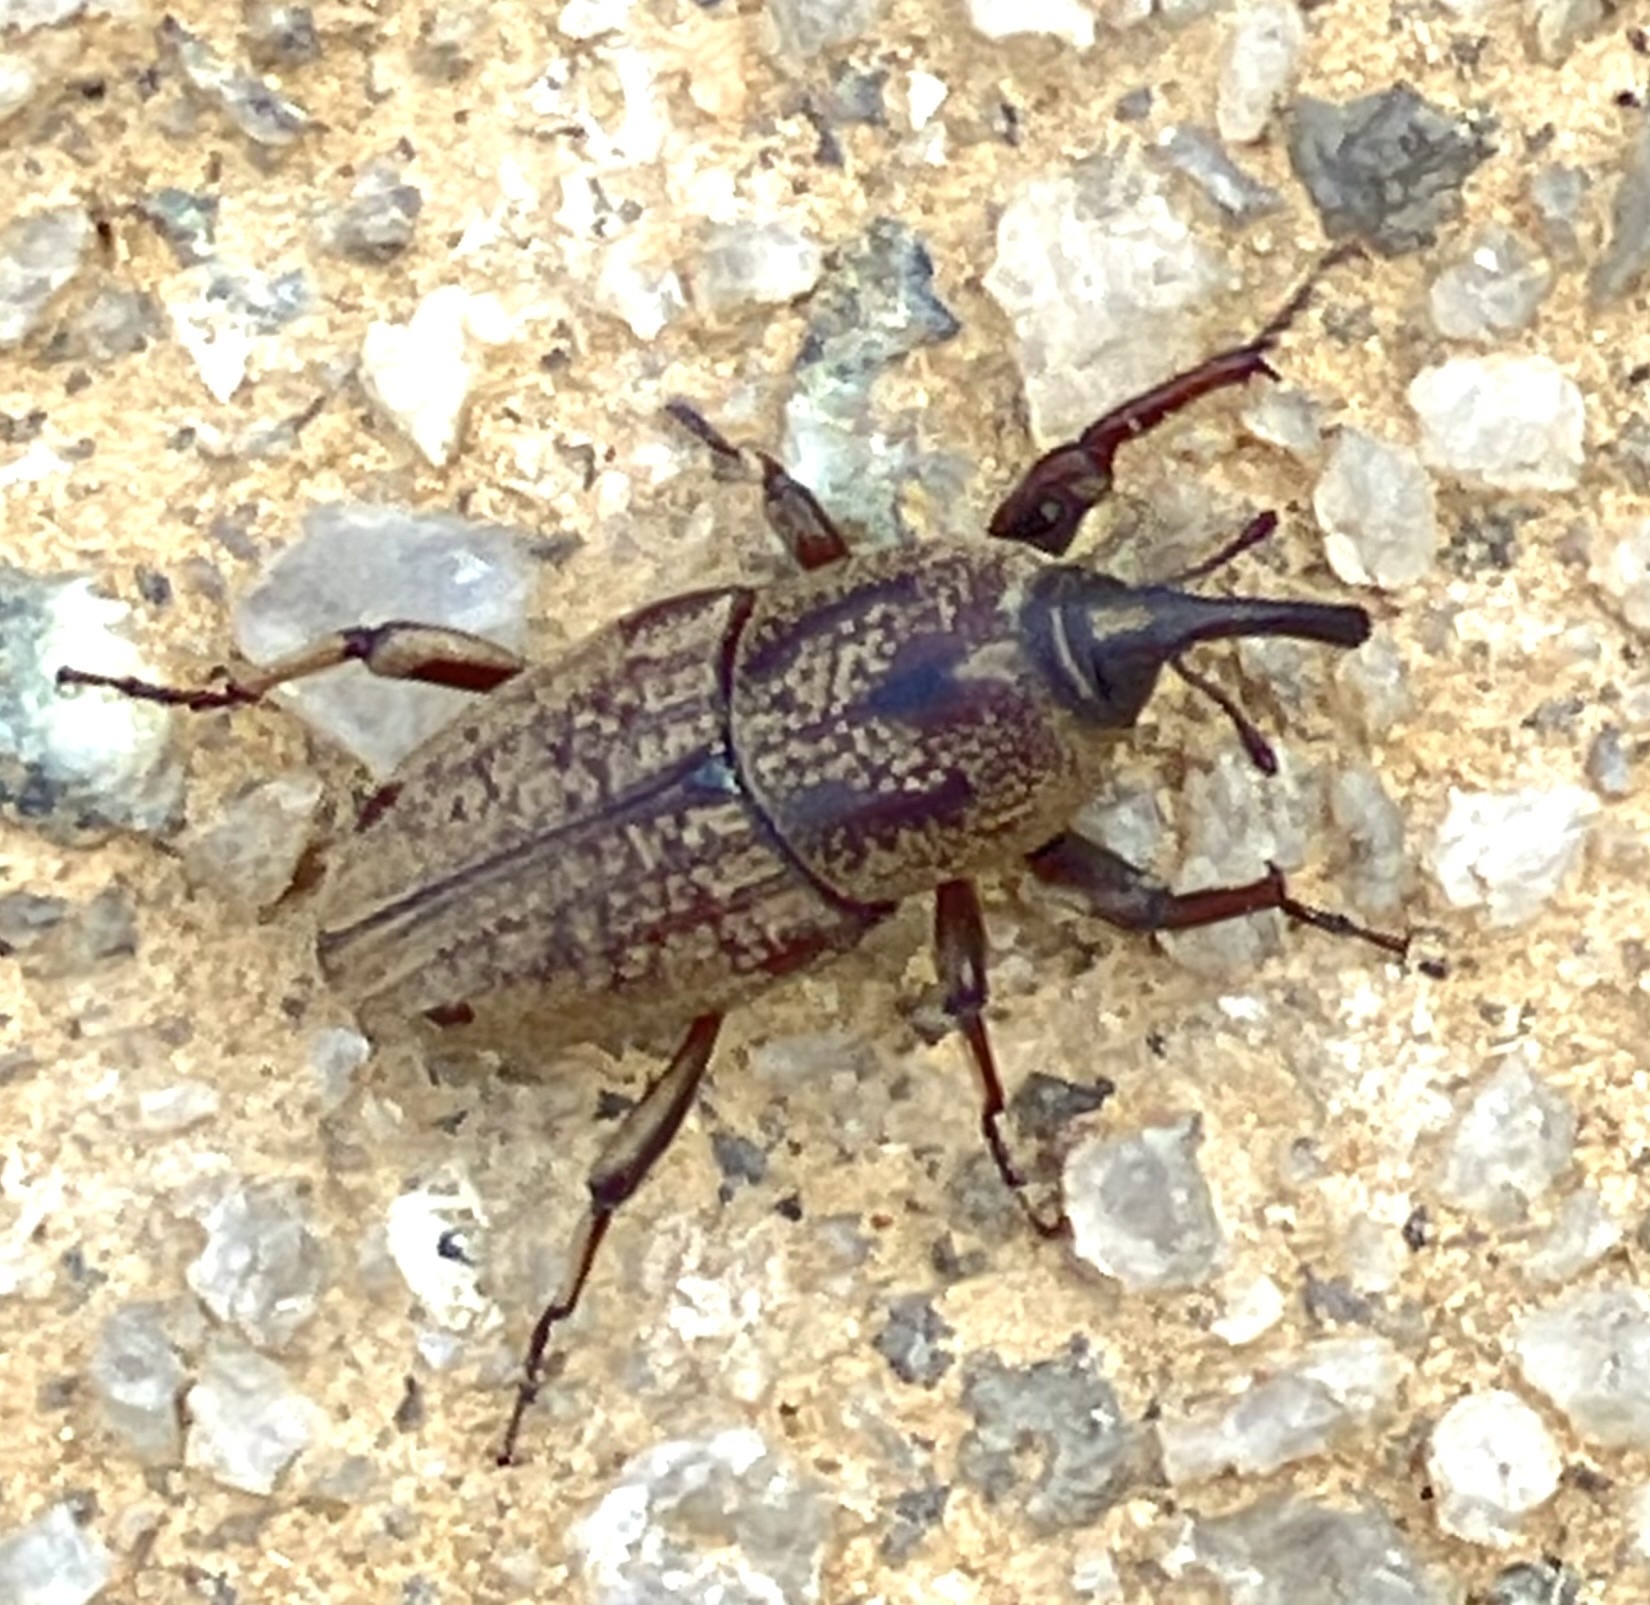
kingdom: Animalia
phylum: Arthropoda
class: Insecta
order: Coleoptera
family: Dryophthoridae
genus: Sphenophorus
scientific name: Sphenophorus venatus
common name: Hunting billbug
